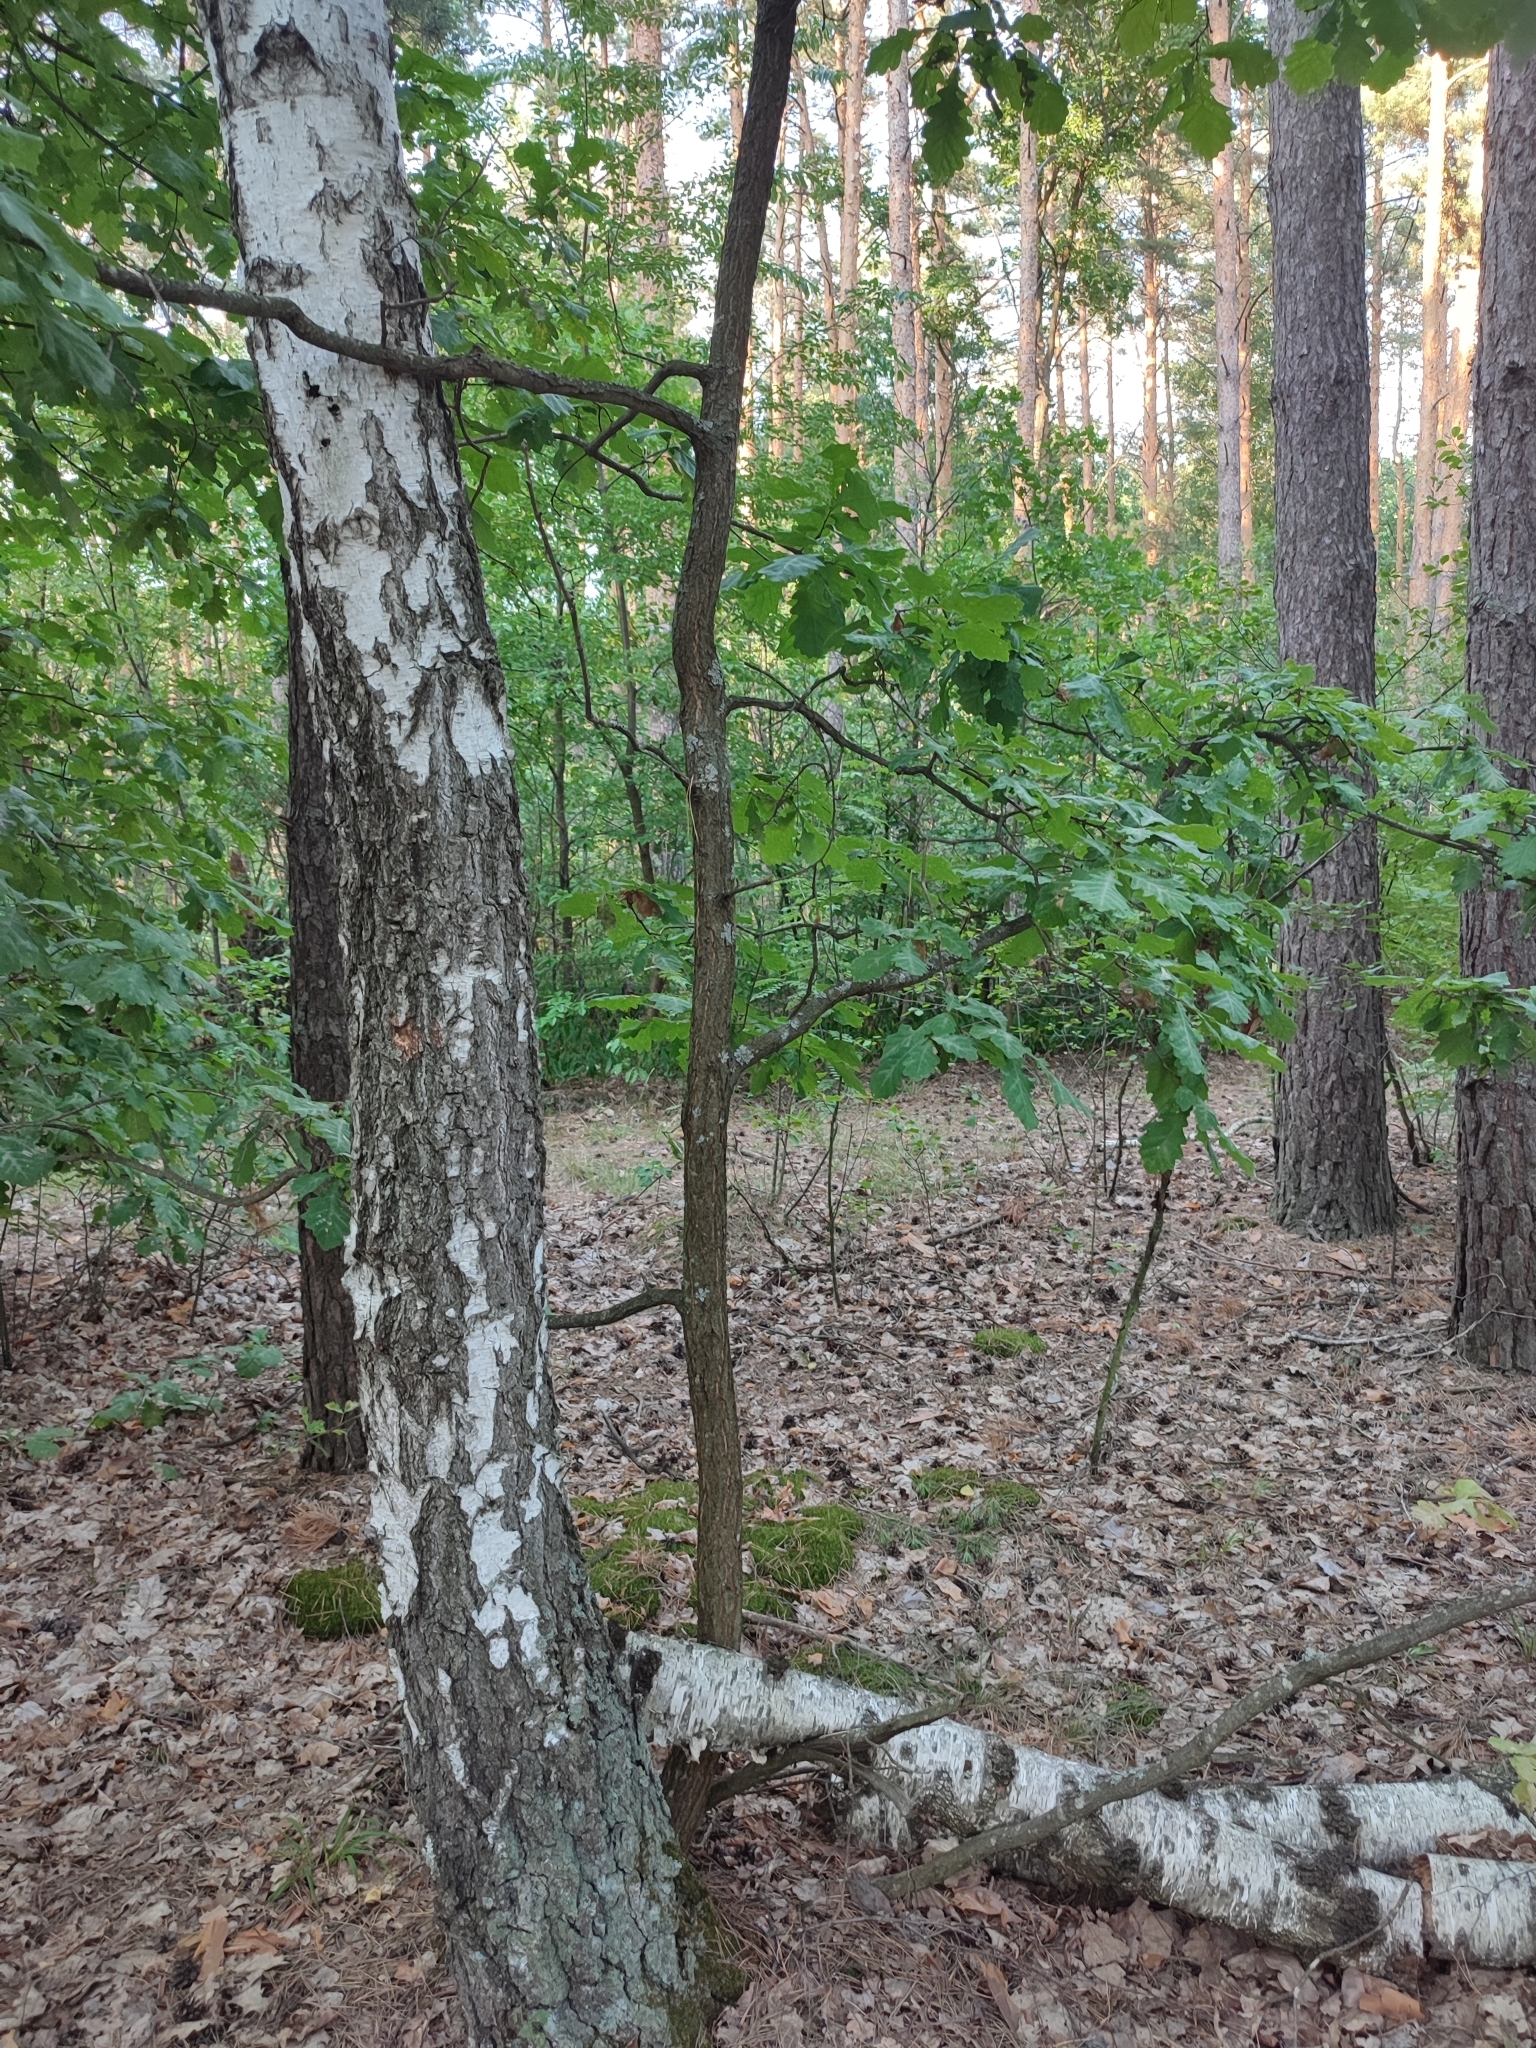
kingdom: Plantae
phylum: Tracheophyta
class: Magnoliopsida
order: Fagales
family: Fagaceae
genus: Quercus
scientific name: Quercus robur
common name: Pedunculate oak
